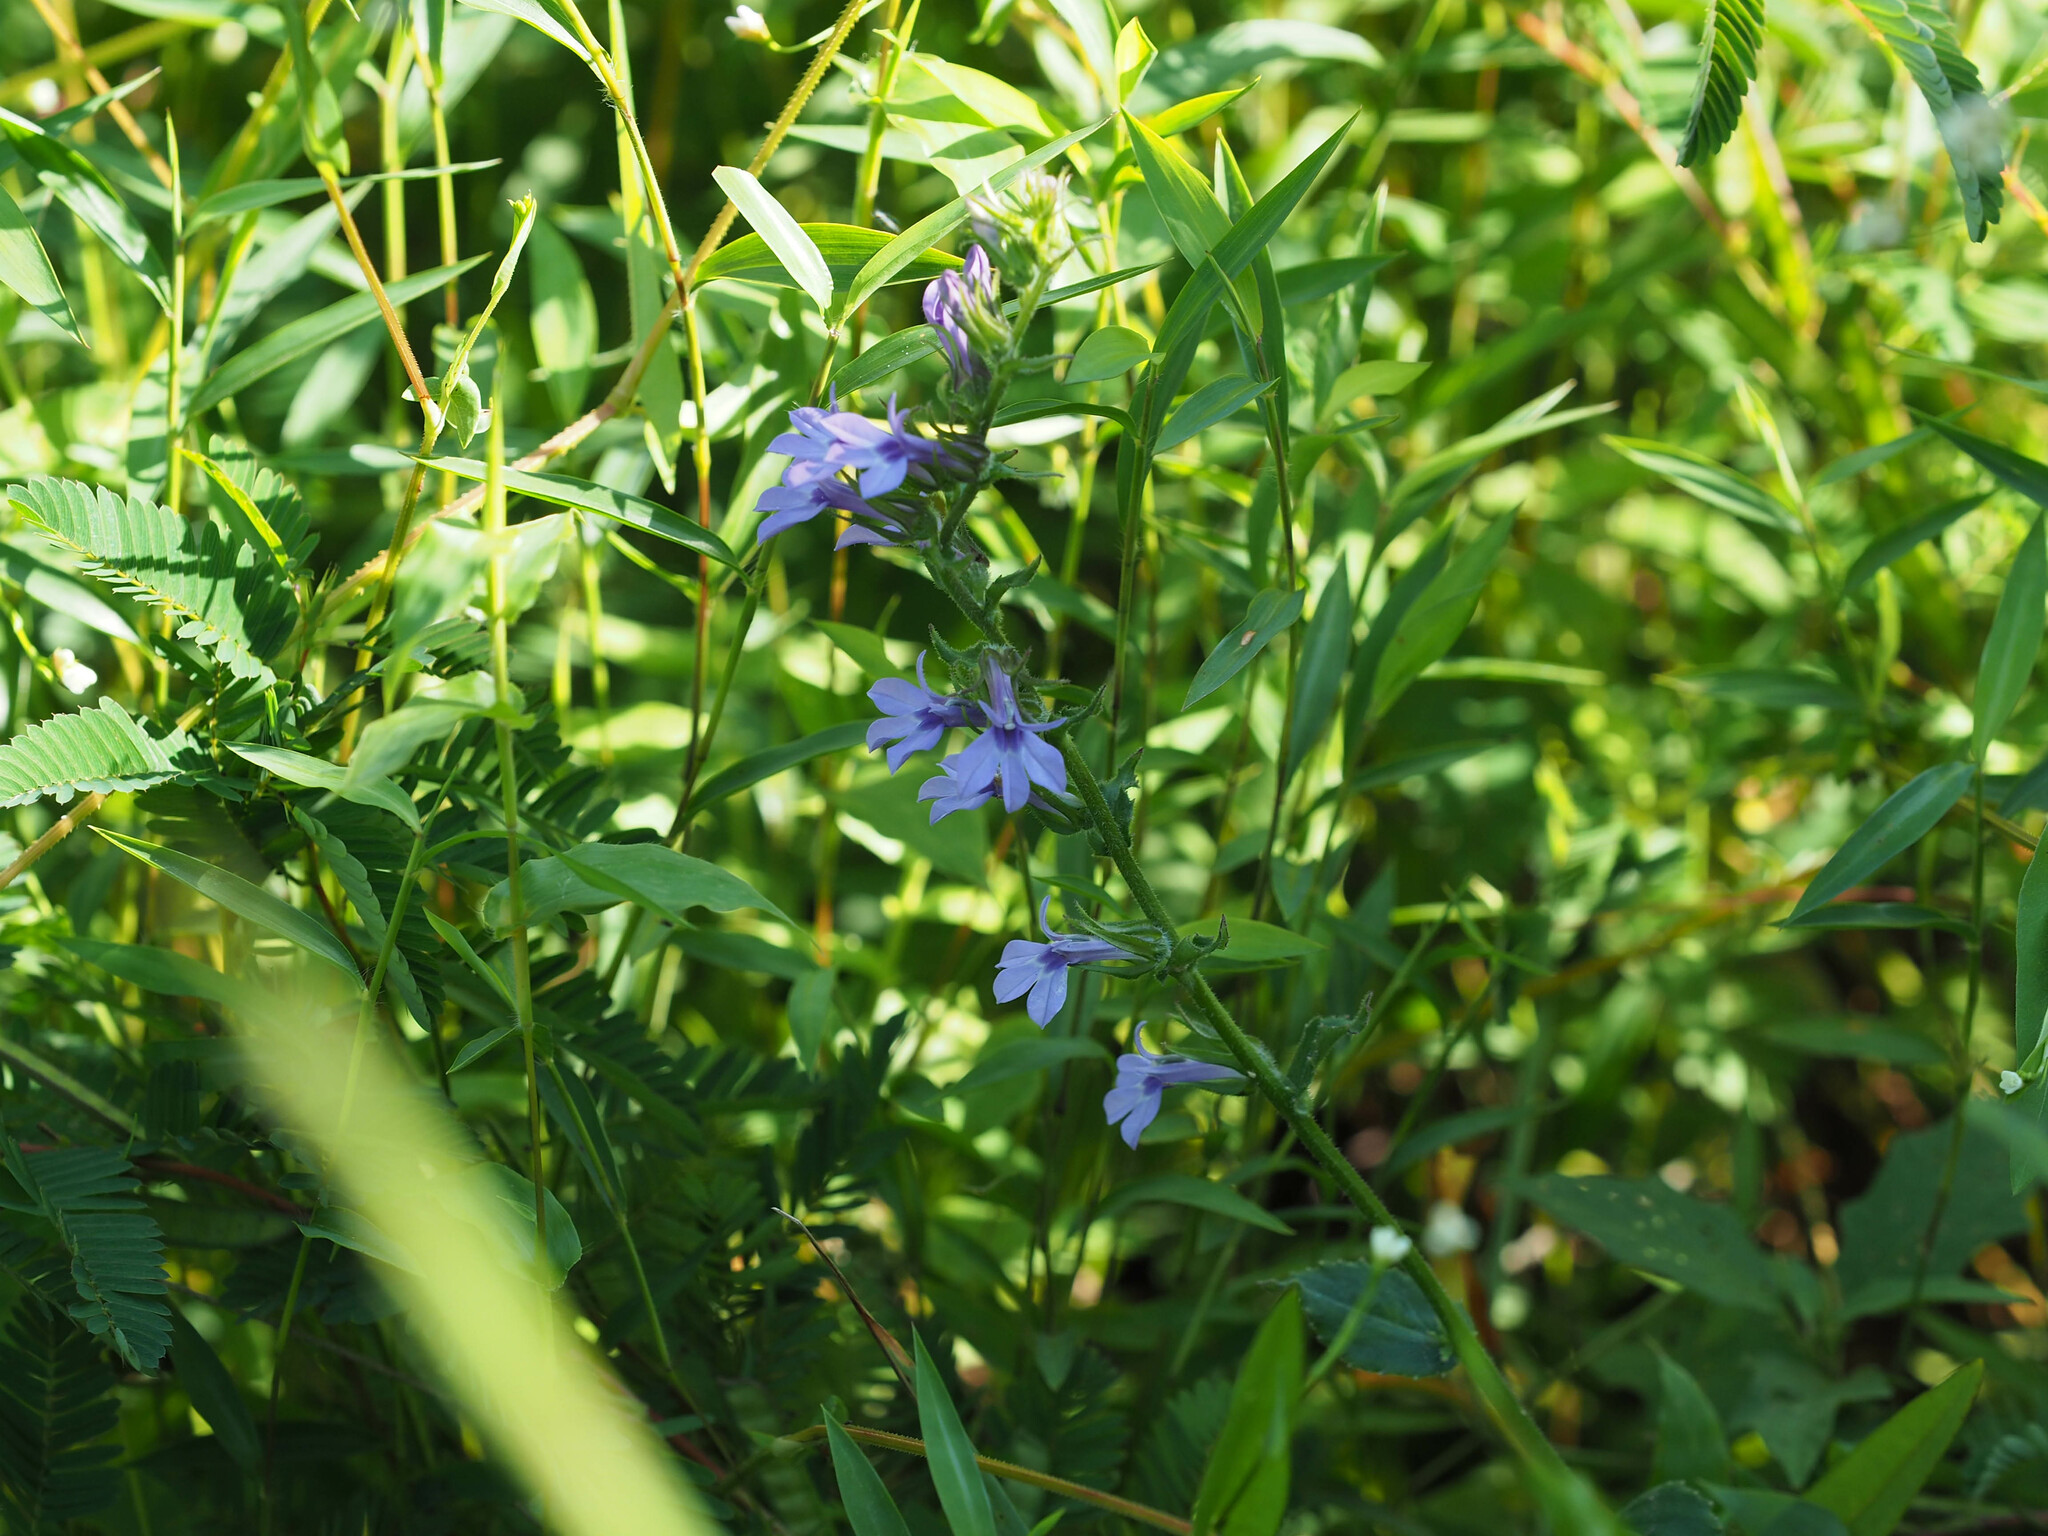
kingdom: Plantae
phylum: Tracheophyta
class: Magnoliopsida
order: Asterales
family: Campanulaceae
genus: Lobelia
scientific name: Lobelia puberula
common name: Purple dewdrop
